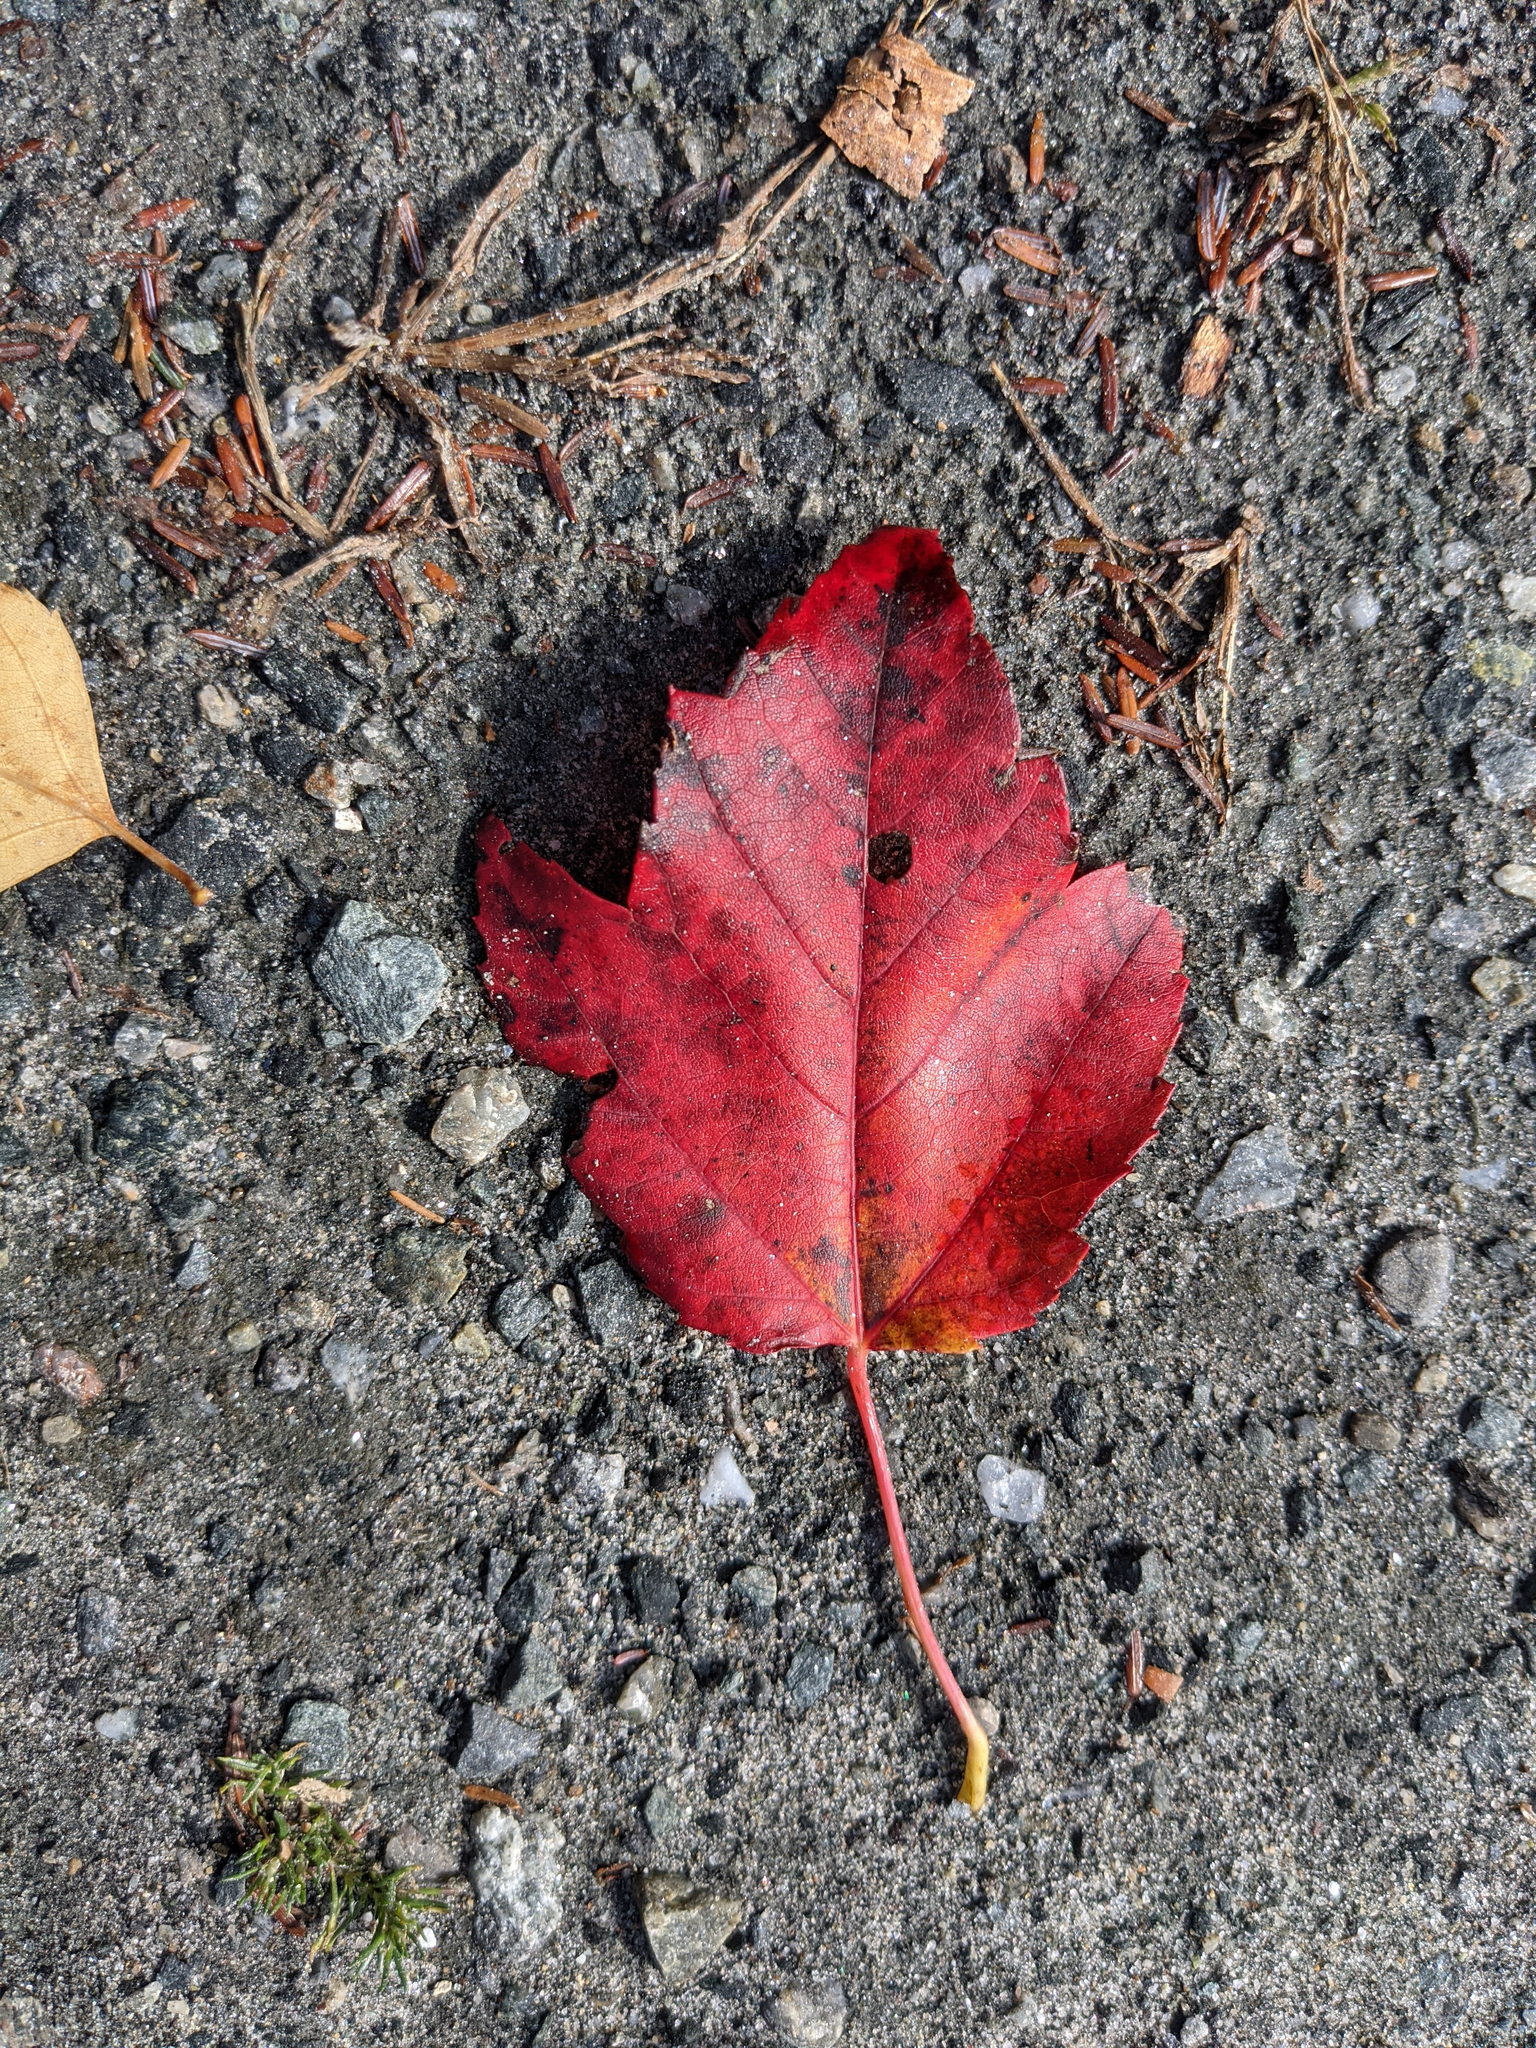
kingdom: Plantae
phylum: Tracheophyta
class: Magnoliopsida
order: Sapindales
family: Sapindaceae
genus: Acer
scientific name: Acer rubrum
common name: Red maple
